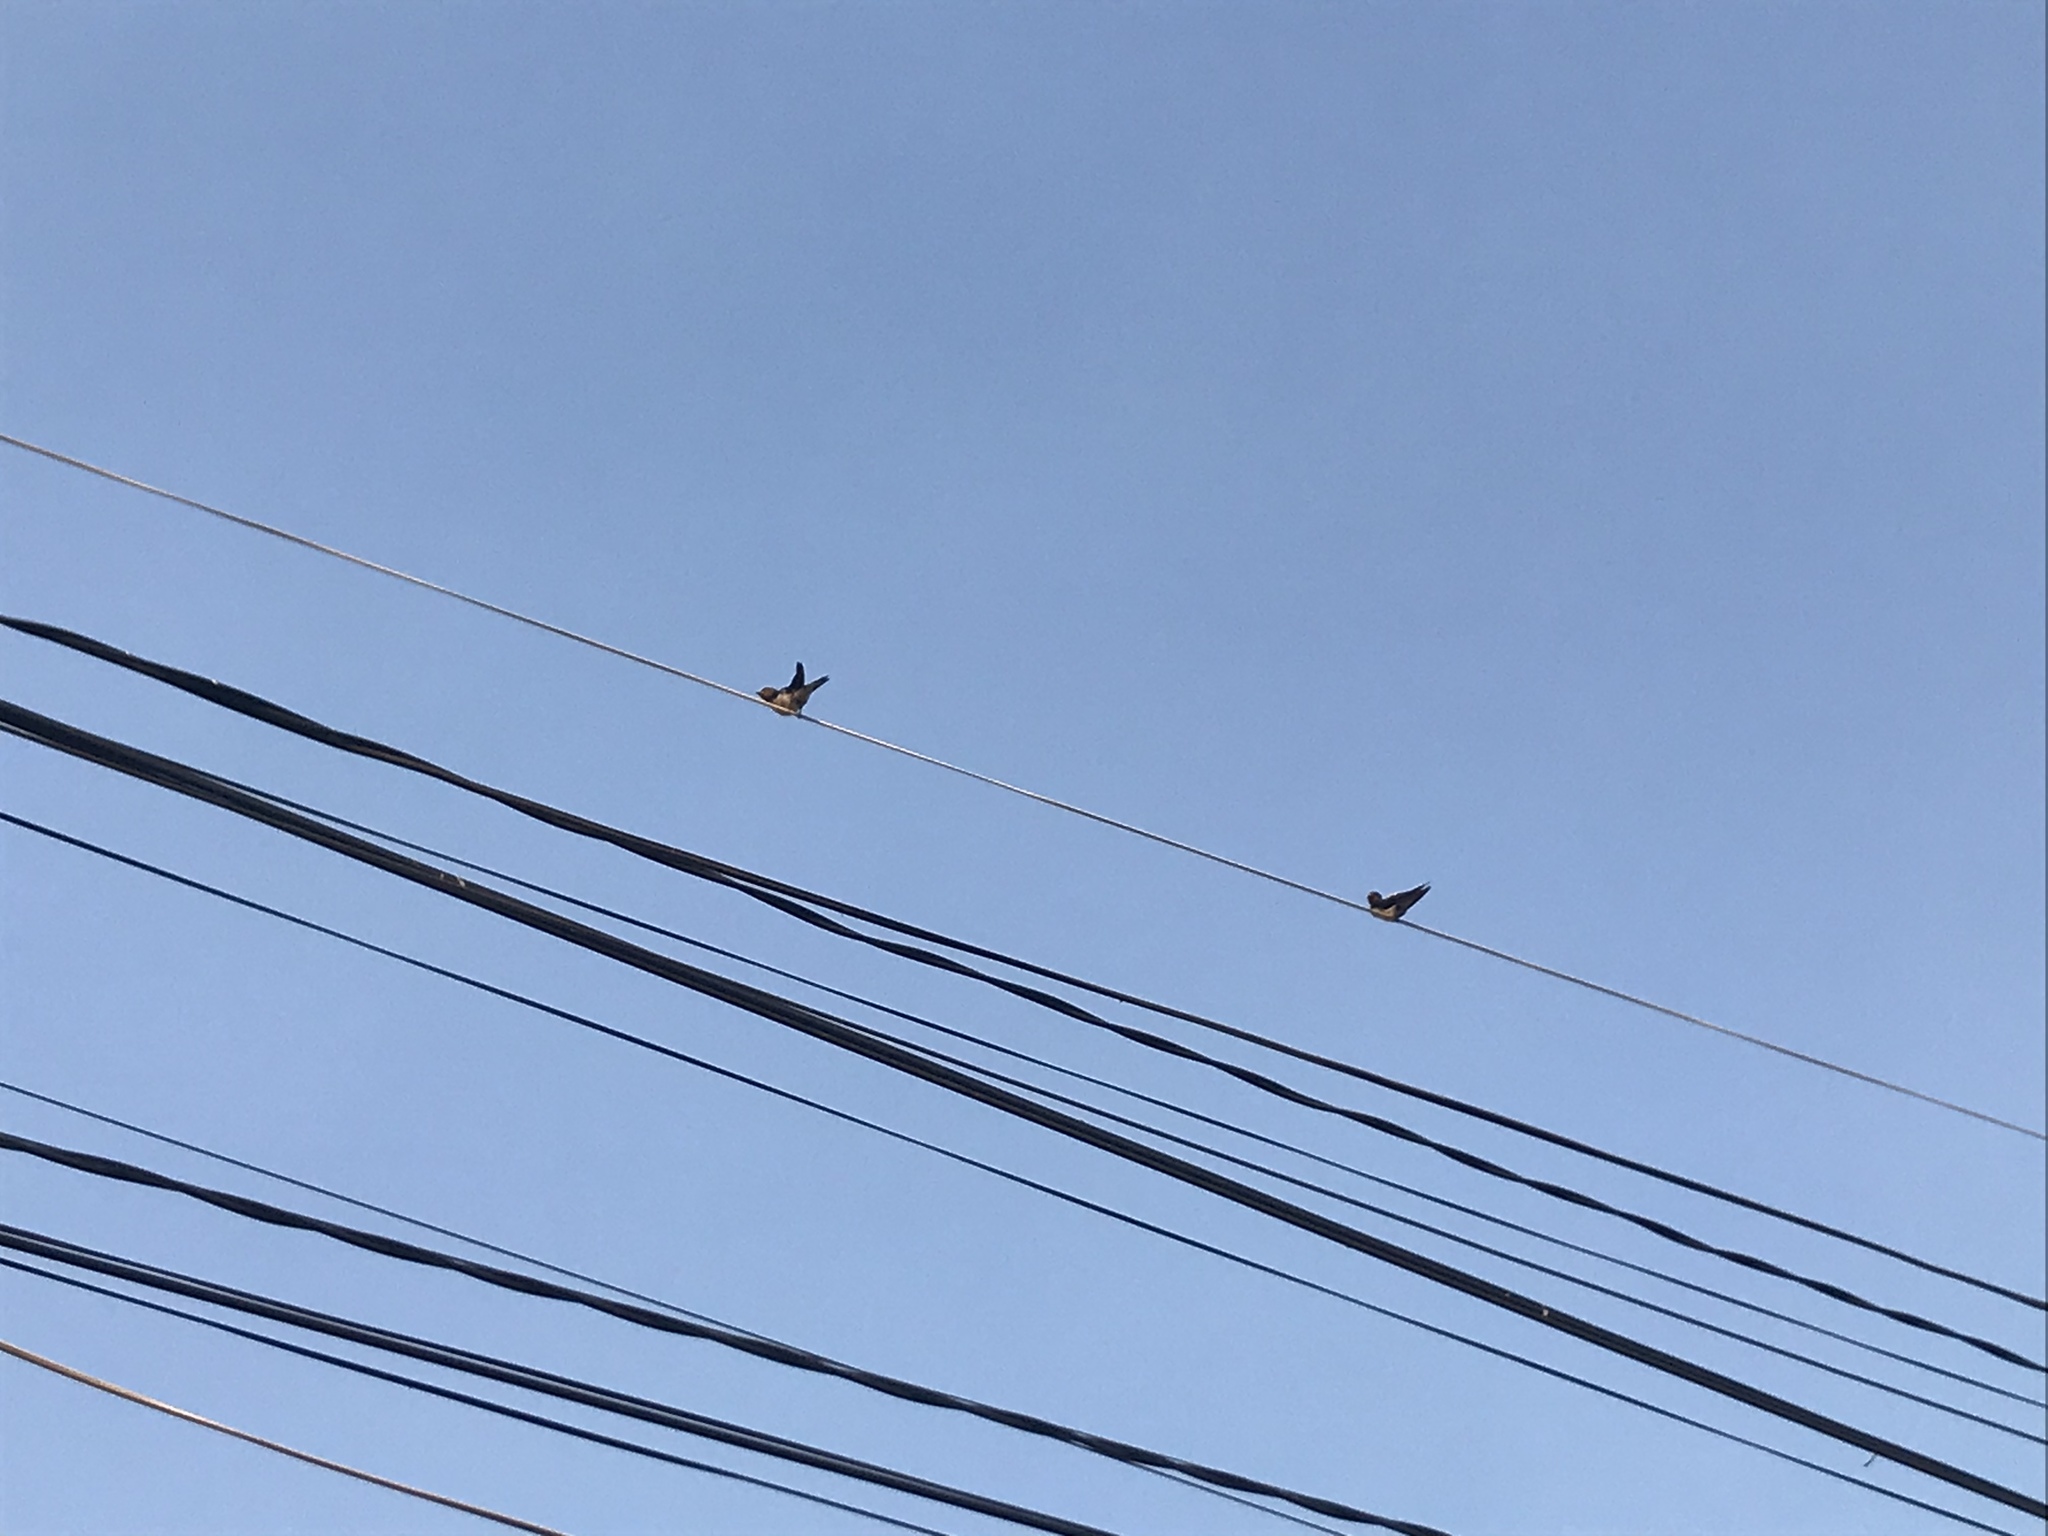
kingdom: Animalia
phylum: Chordata
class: Aves
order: Passeriformes
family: Hirundinidae
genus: Hirundo
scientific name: Hirundo rustica
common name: Barn swallow
